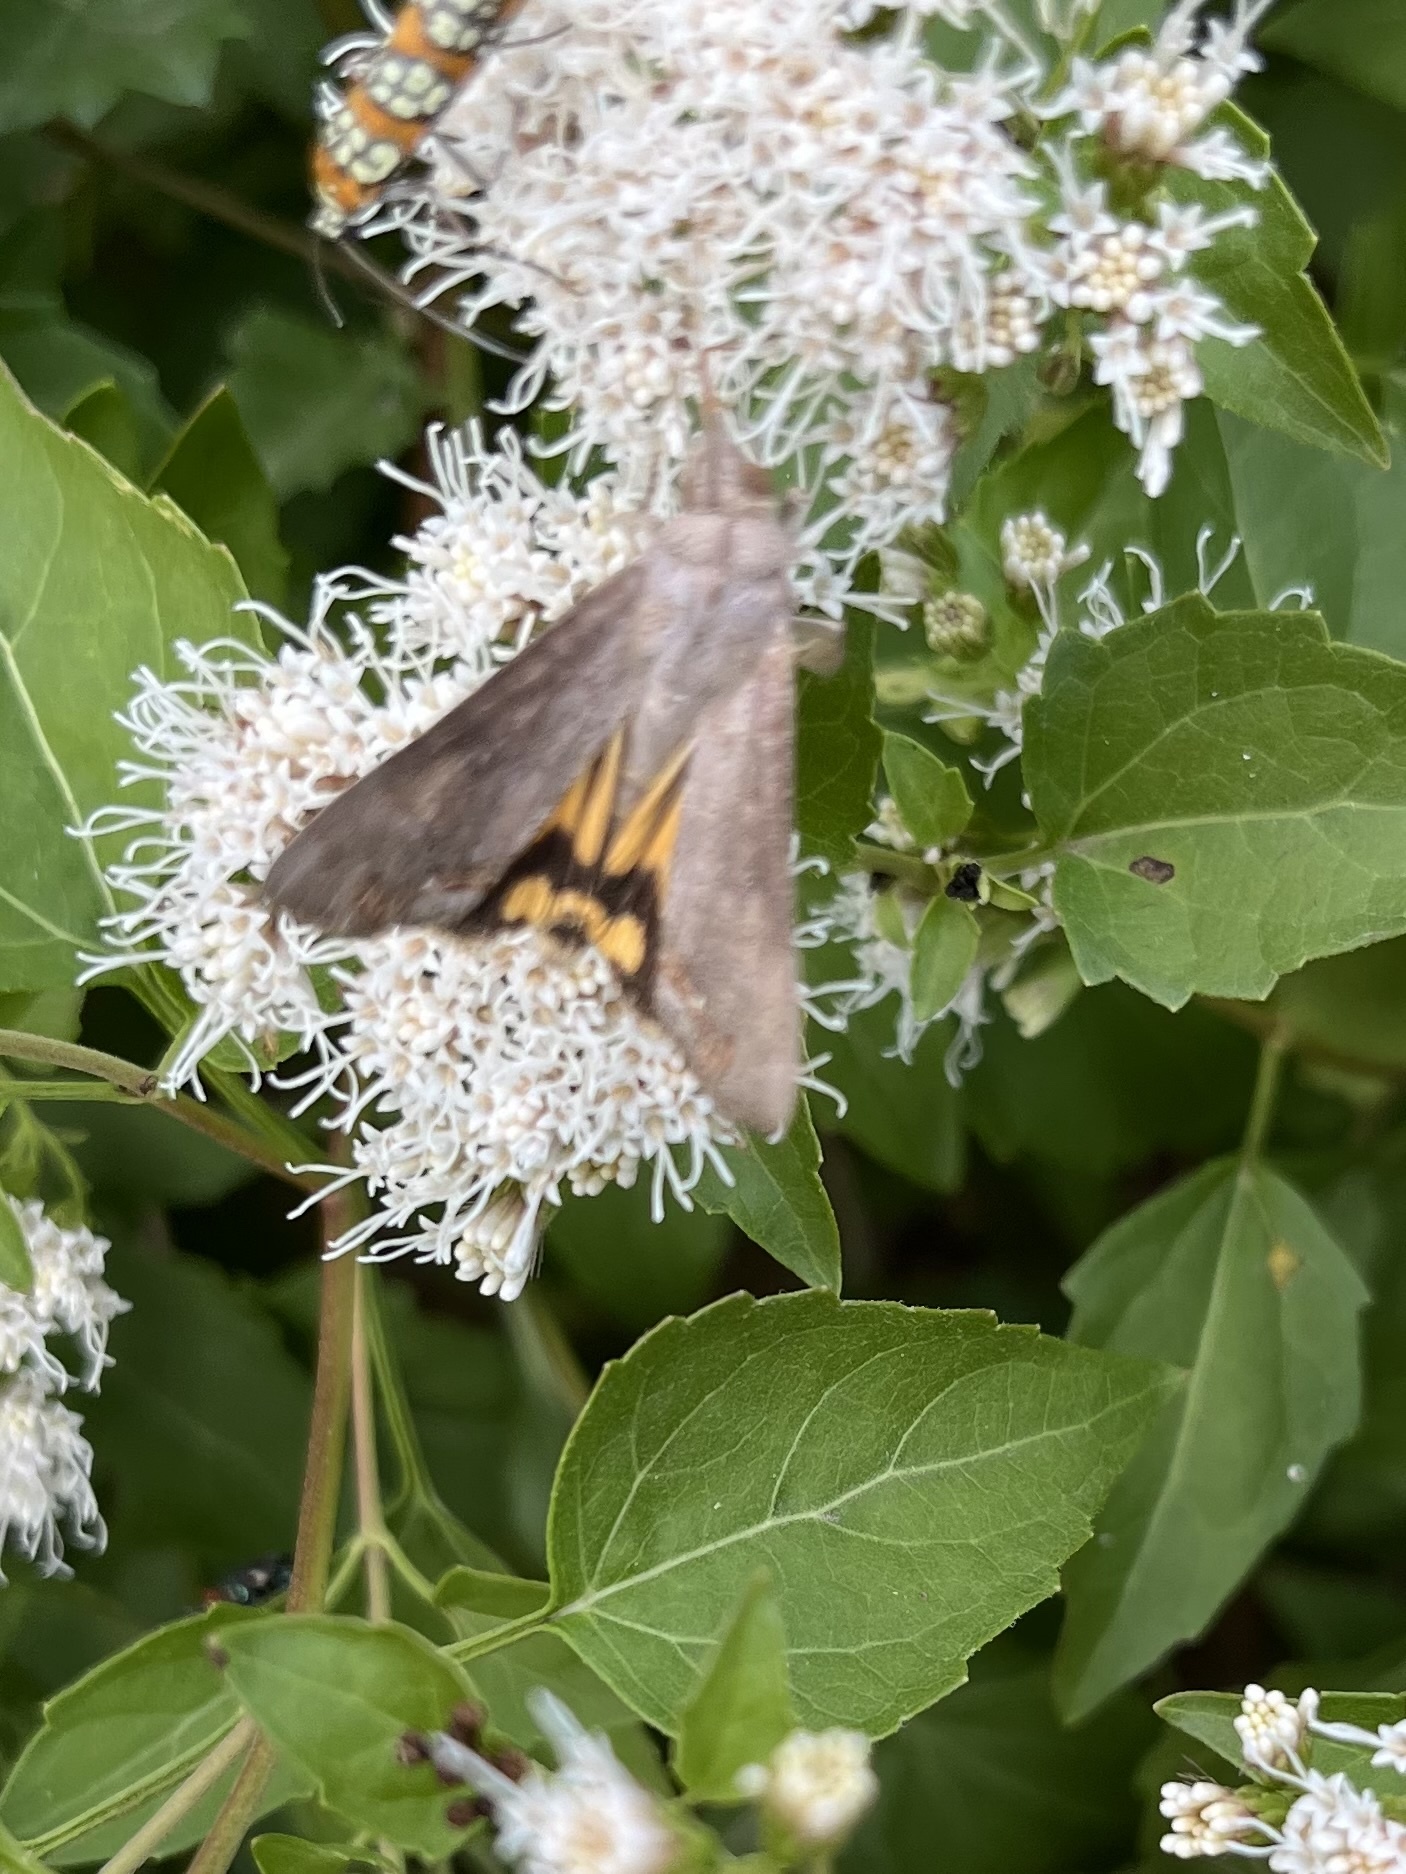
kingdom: Animalia
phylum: Arthropoda
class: Insecta
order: Lepidoptera
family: Erebidae
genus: Hypocala
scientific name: Hypocala andremona
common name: Hypocala moth
